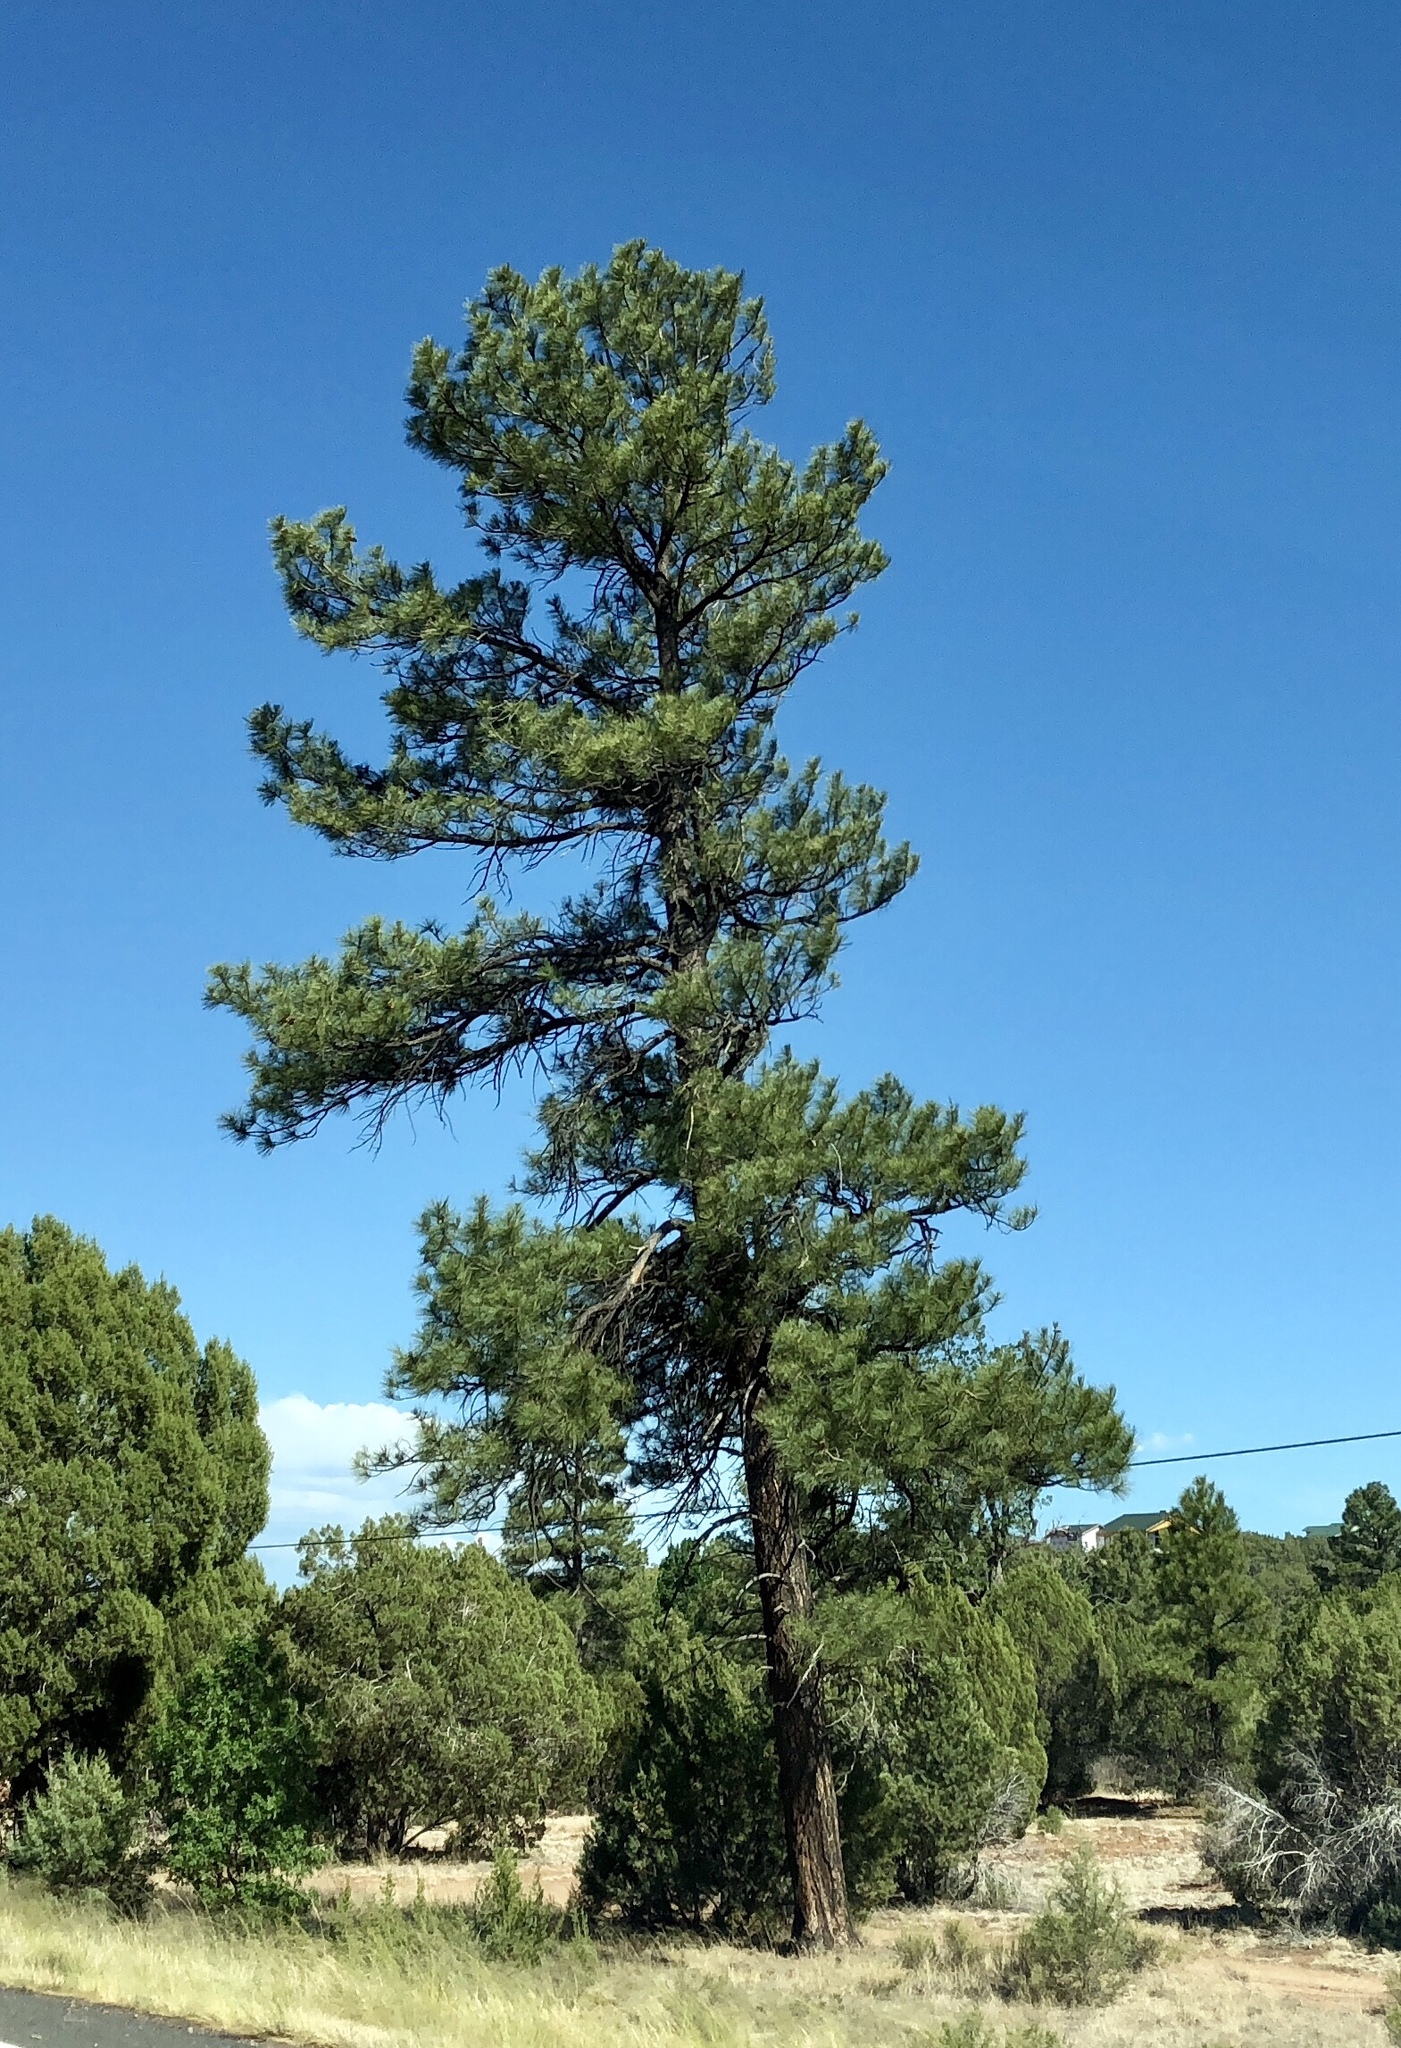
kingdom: Plantae
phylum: Tracheophyta
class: Pinopsida
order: Pinales
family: Pinaceae
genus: Pinus
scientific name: Pinus ponderosa
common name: Western yellow-pine
